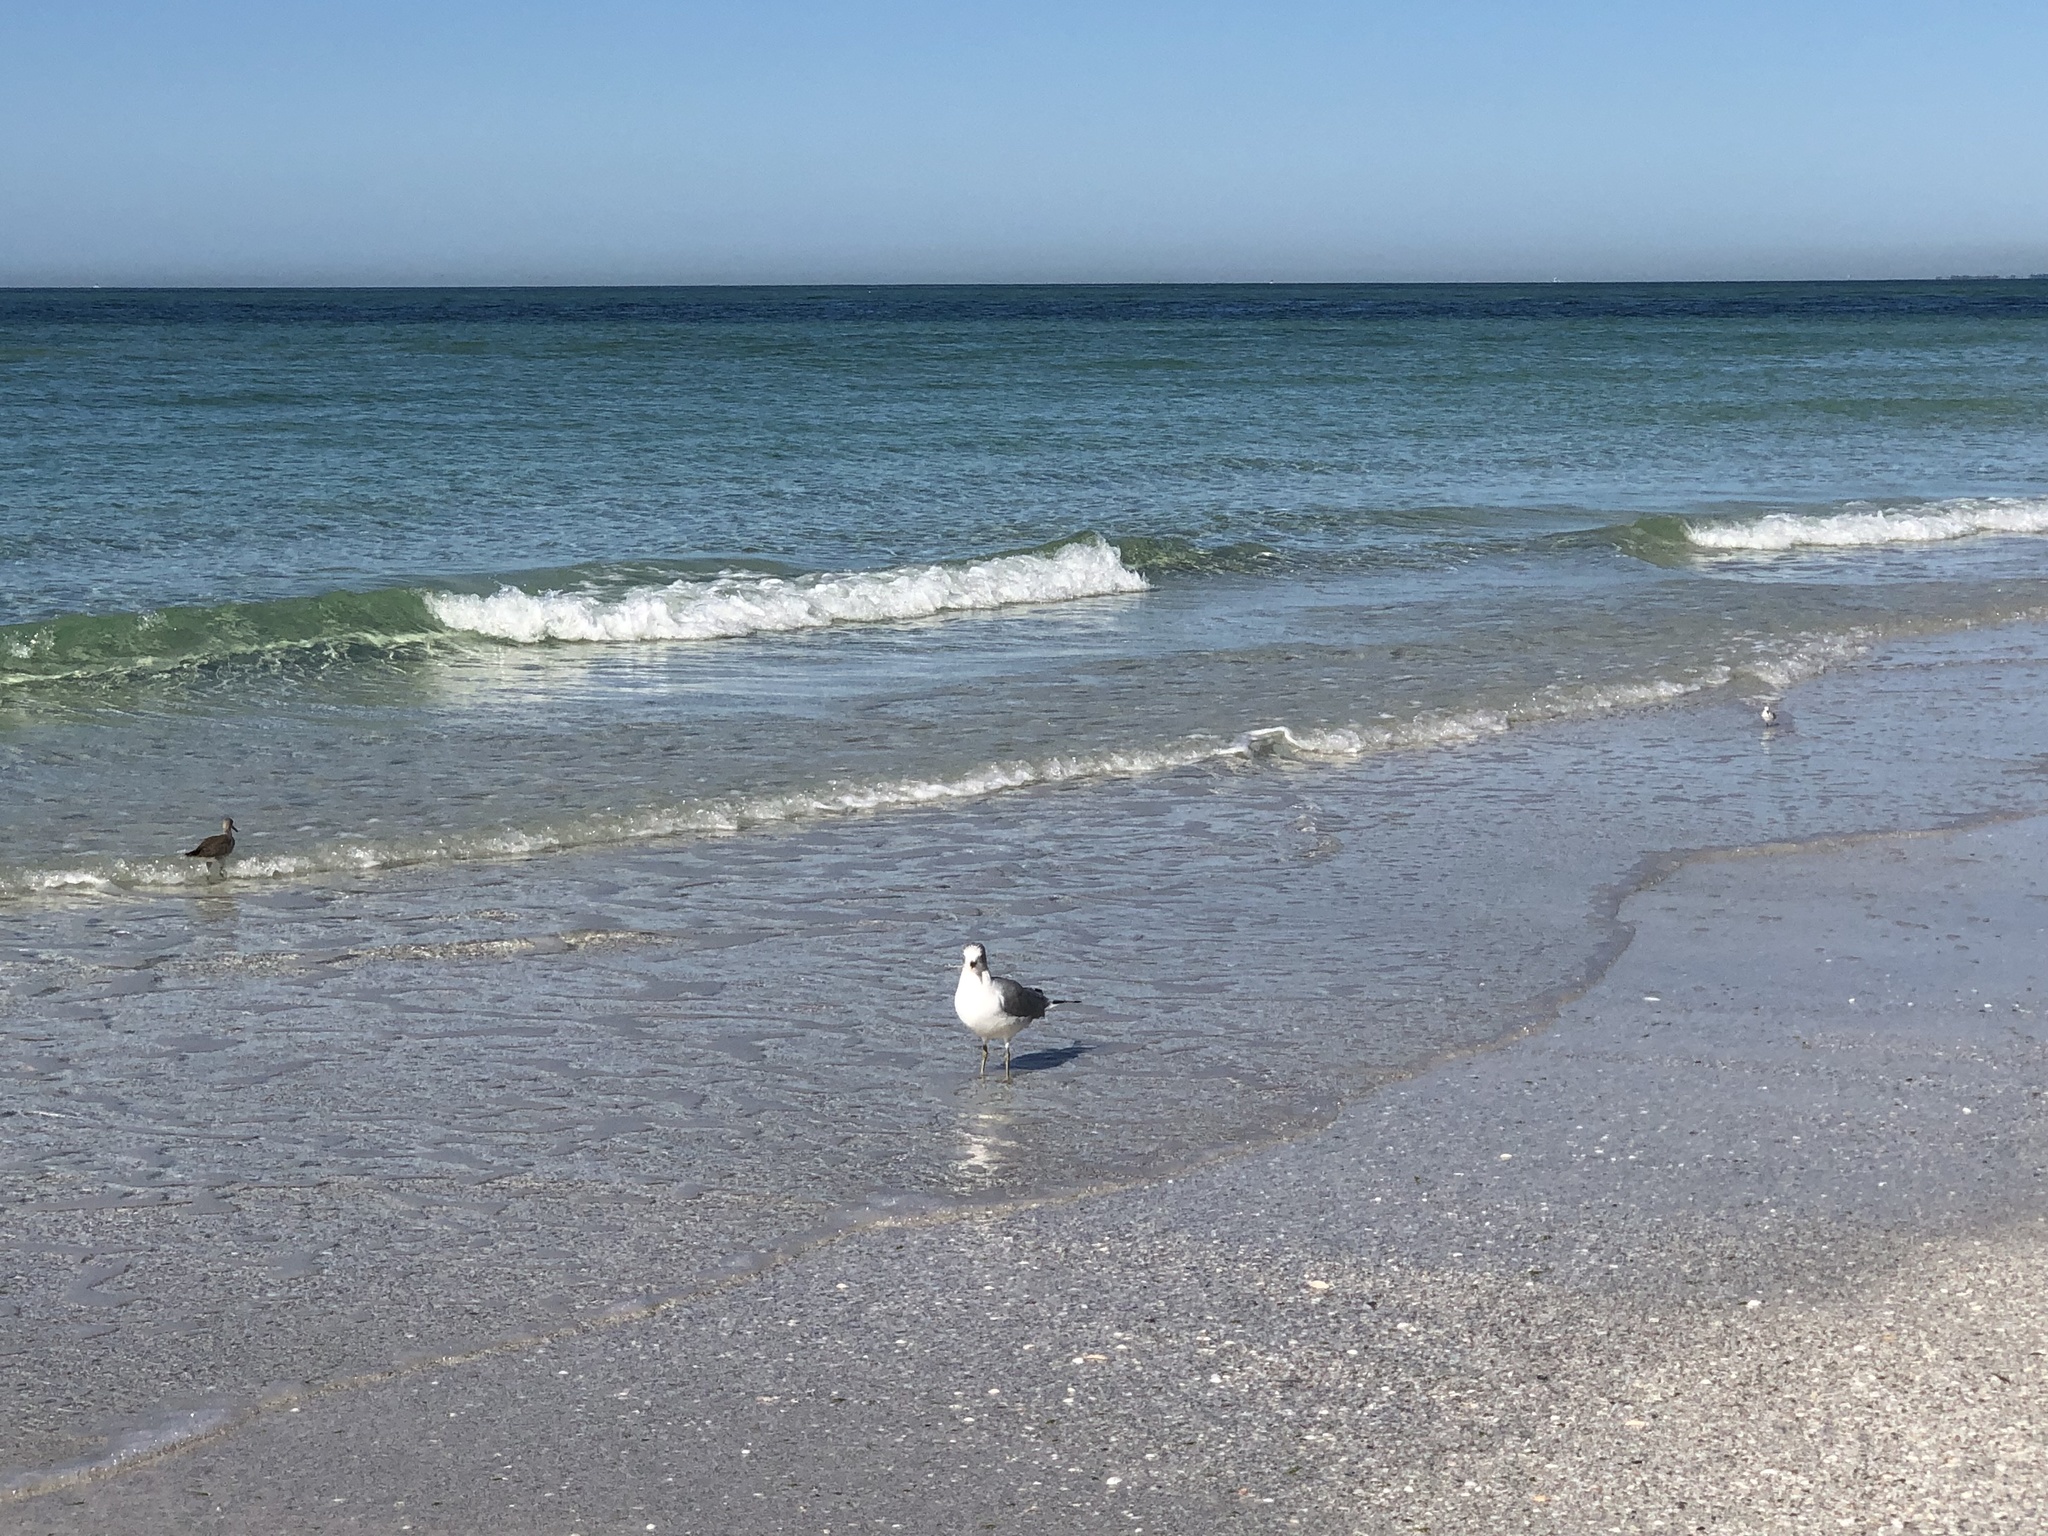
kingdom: Animalia
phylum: Chordata
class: Aves
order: Charadriiformes
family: Laridae
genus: Larus
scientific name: Larus delawarensis
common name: Ring-billed gull
